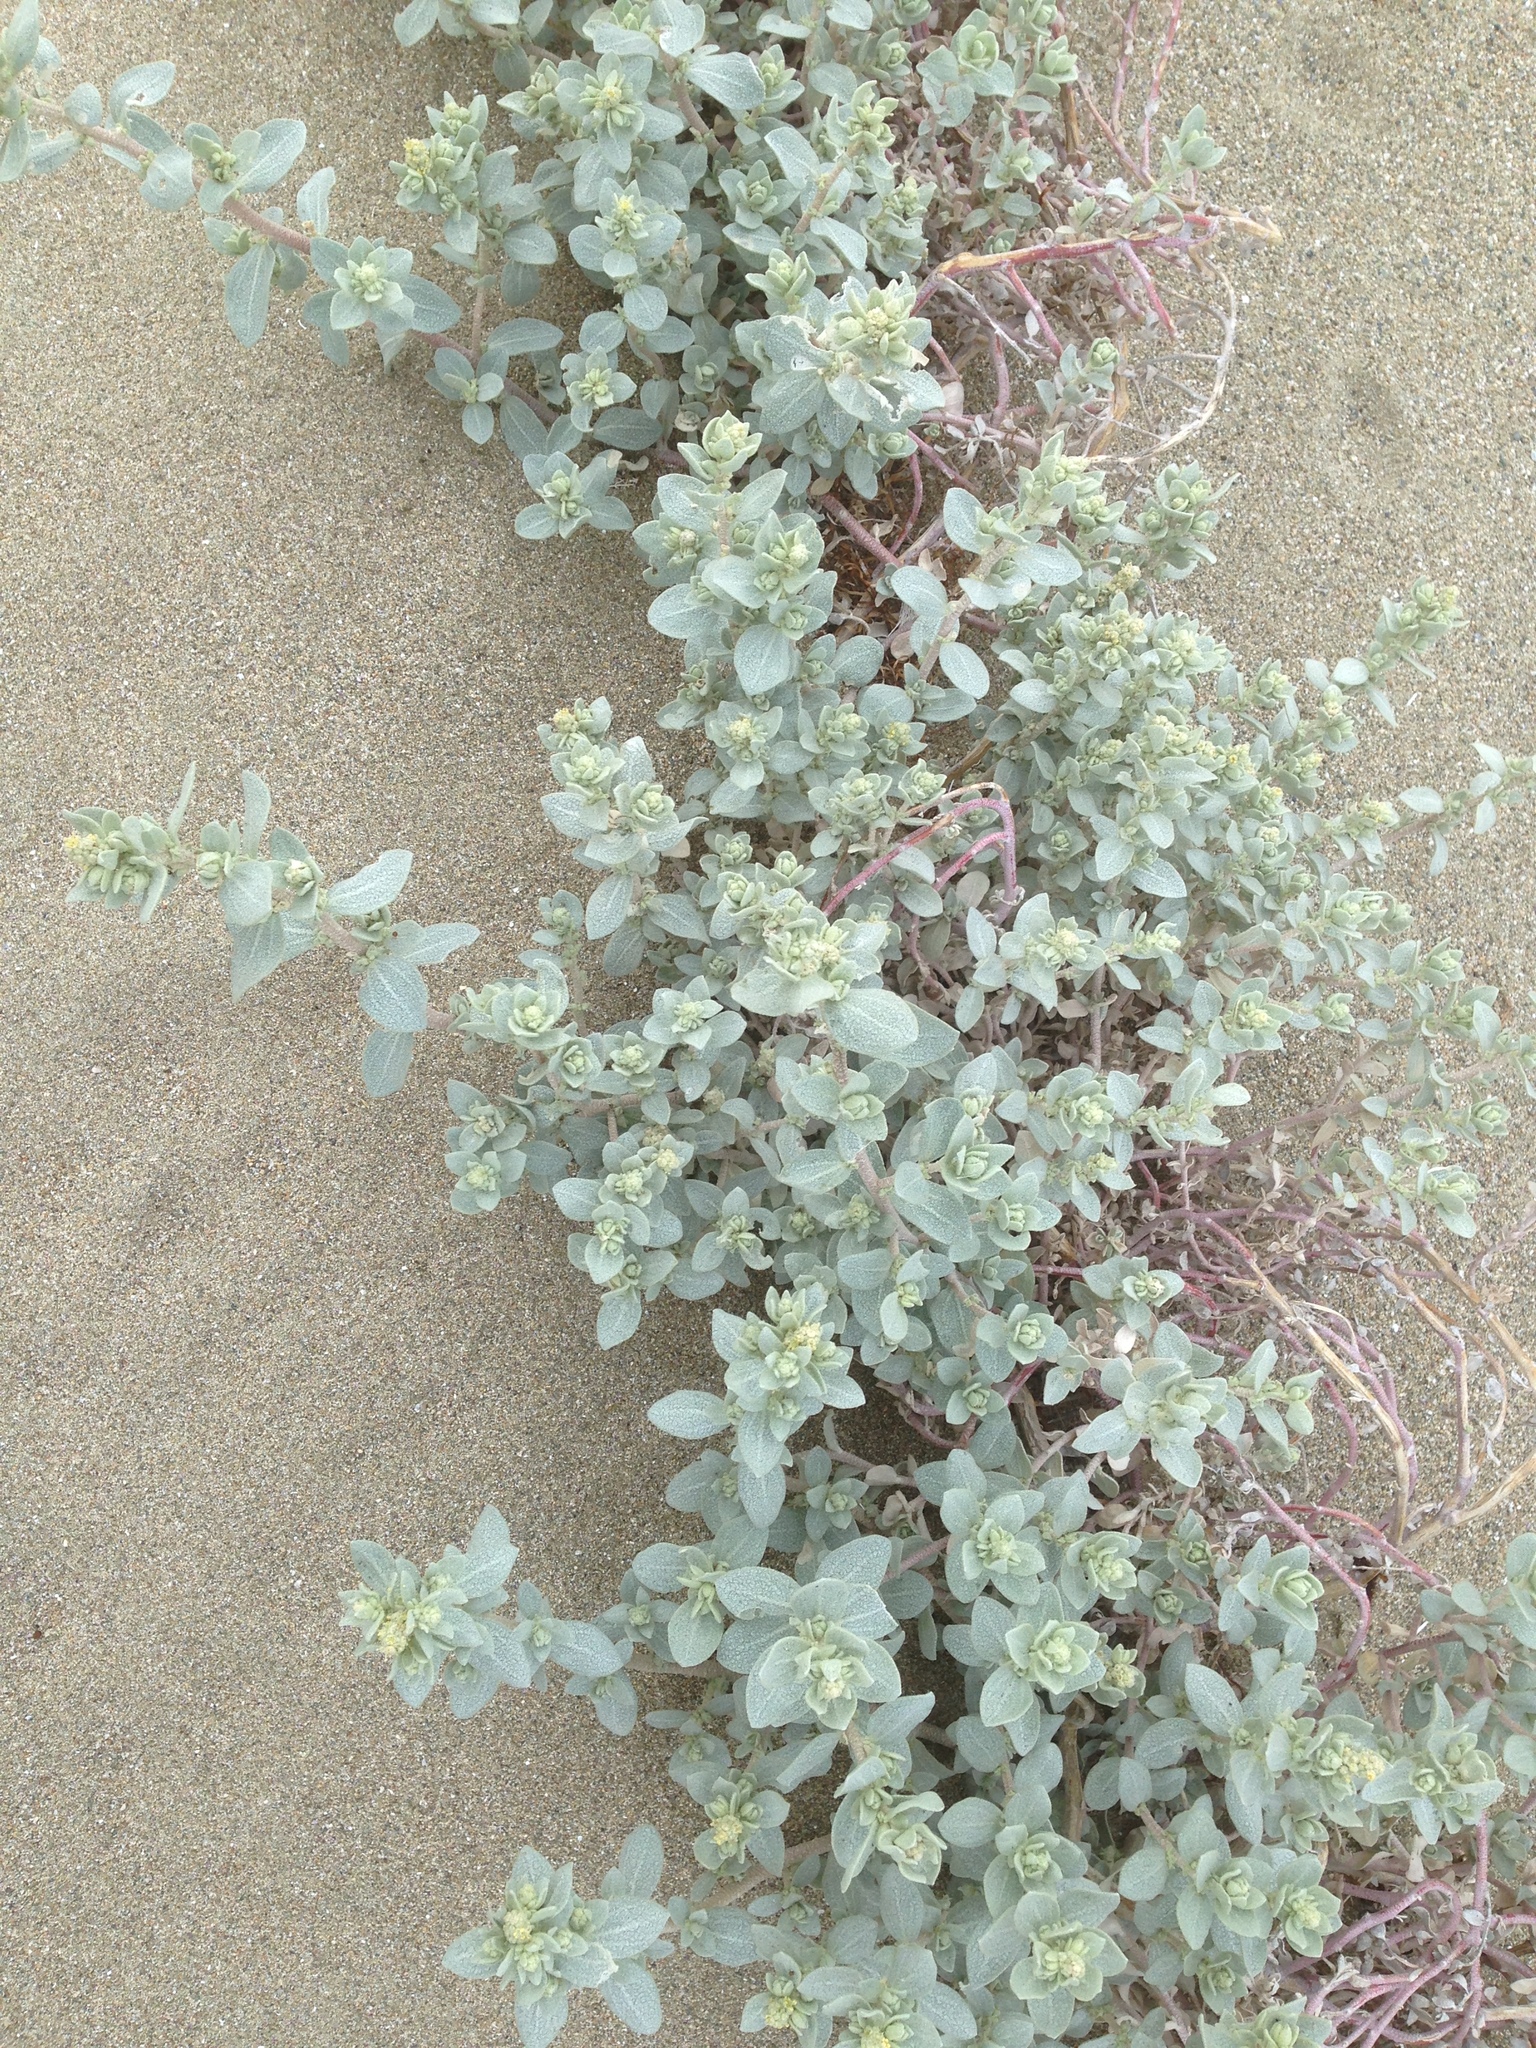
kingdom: Plantae
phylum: Tracheophyta
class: Magnoliopsida
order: Caryophyllales
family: Amaranthaceae
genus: Atriplex
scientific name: Atriplex leucophylla
